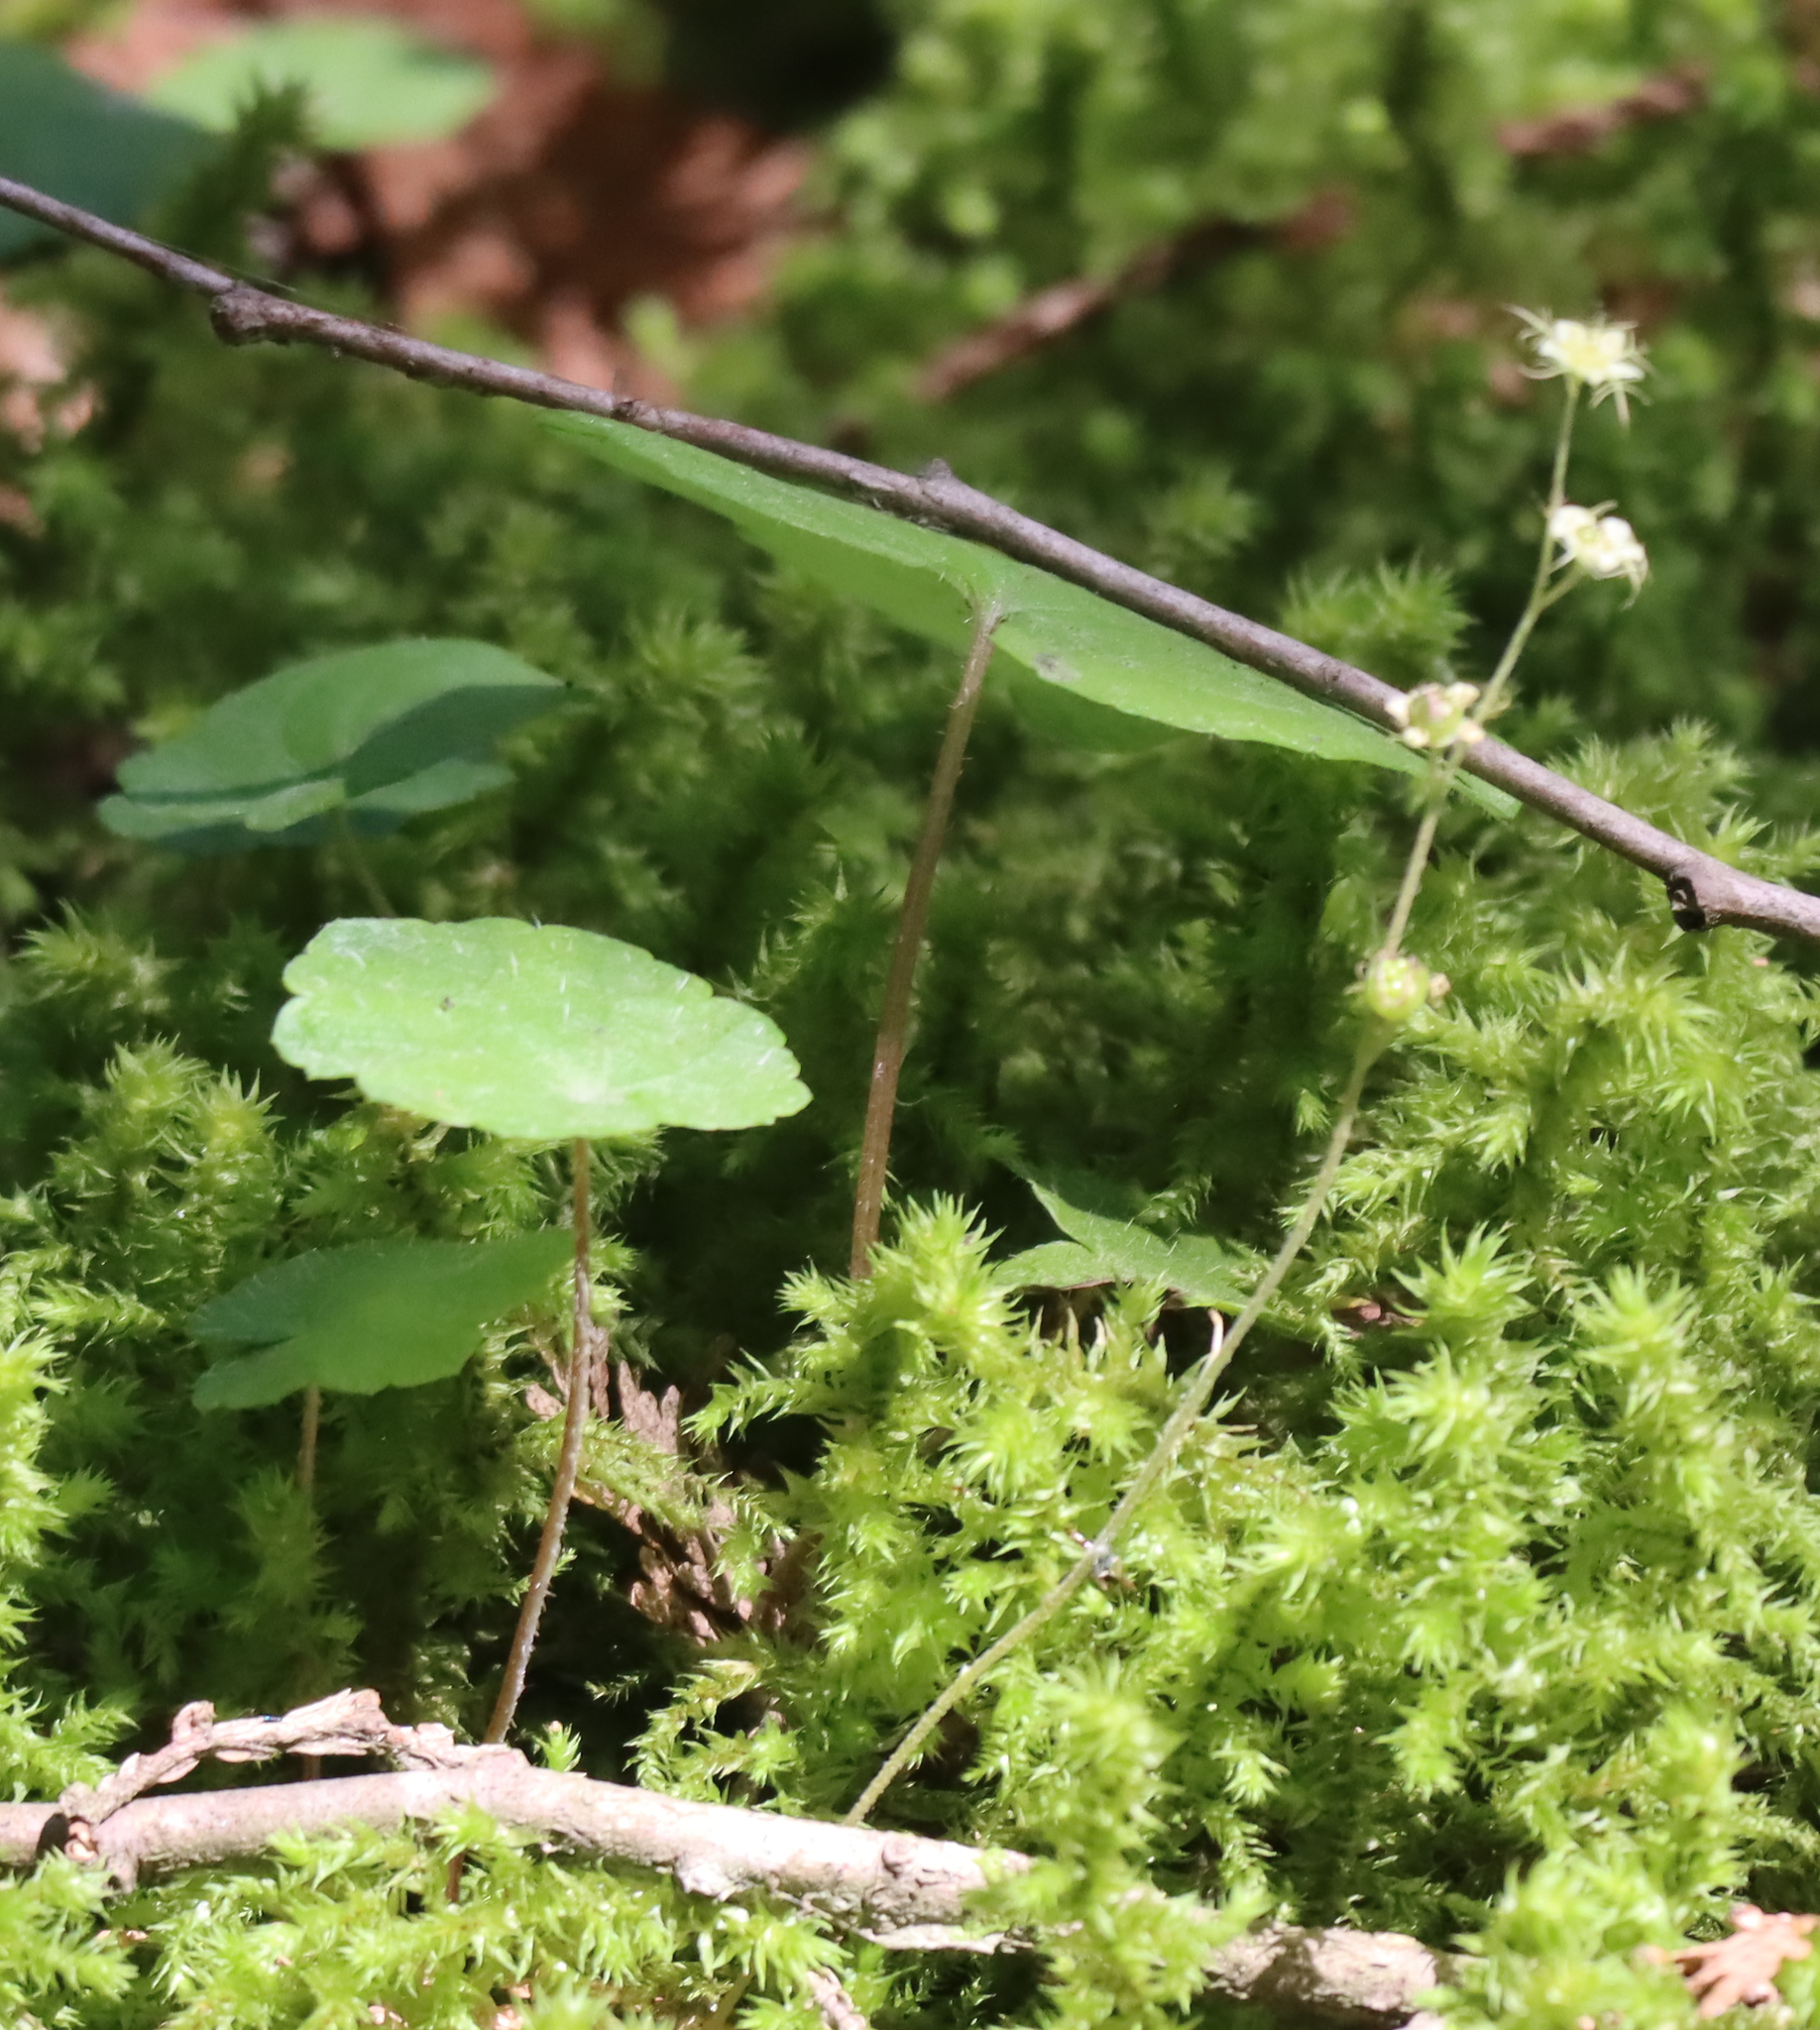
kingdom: Plantae
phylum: Tracheophyta
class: Magnoliopsida
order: Saxifragales
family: Saxifragaceae
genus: Mitella
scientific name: Mitella nuda
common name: Bare-stemmed bishop's-cap
